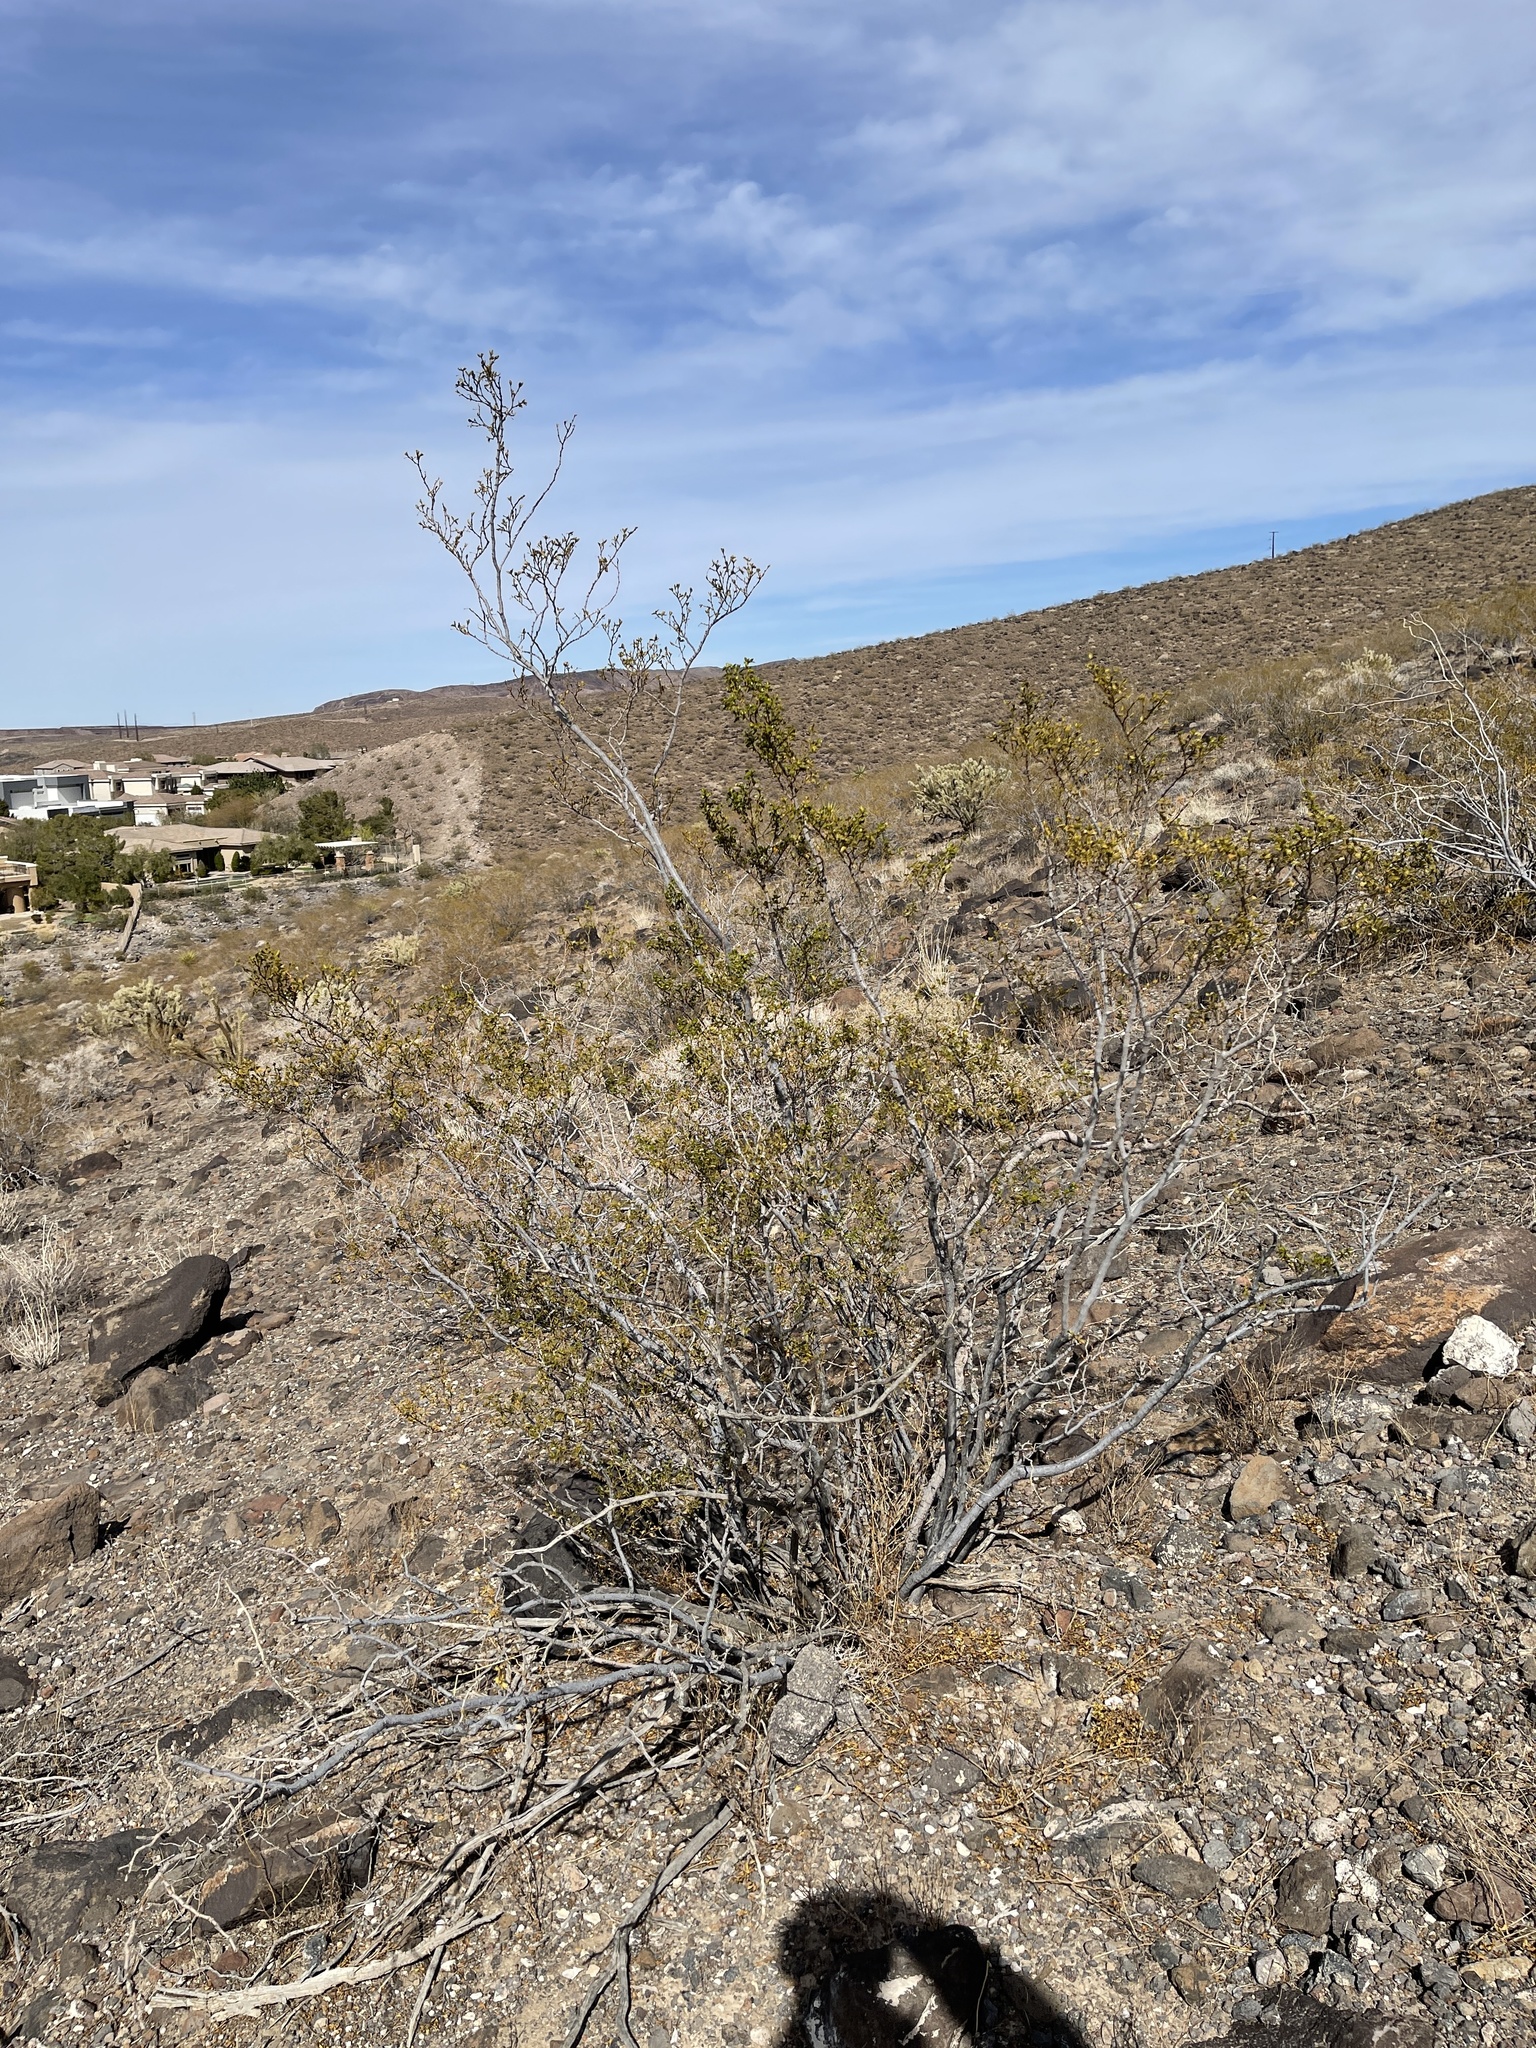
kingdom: Plantae
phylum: Tracheophyta
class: Magnoliopsida
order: Zygophyllales
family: Zygophyllaceae
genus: Larrea
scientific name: Larrea tridentata
